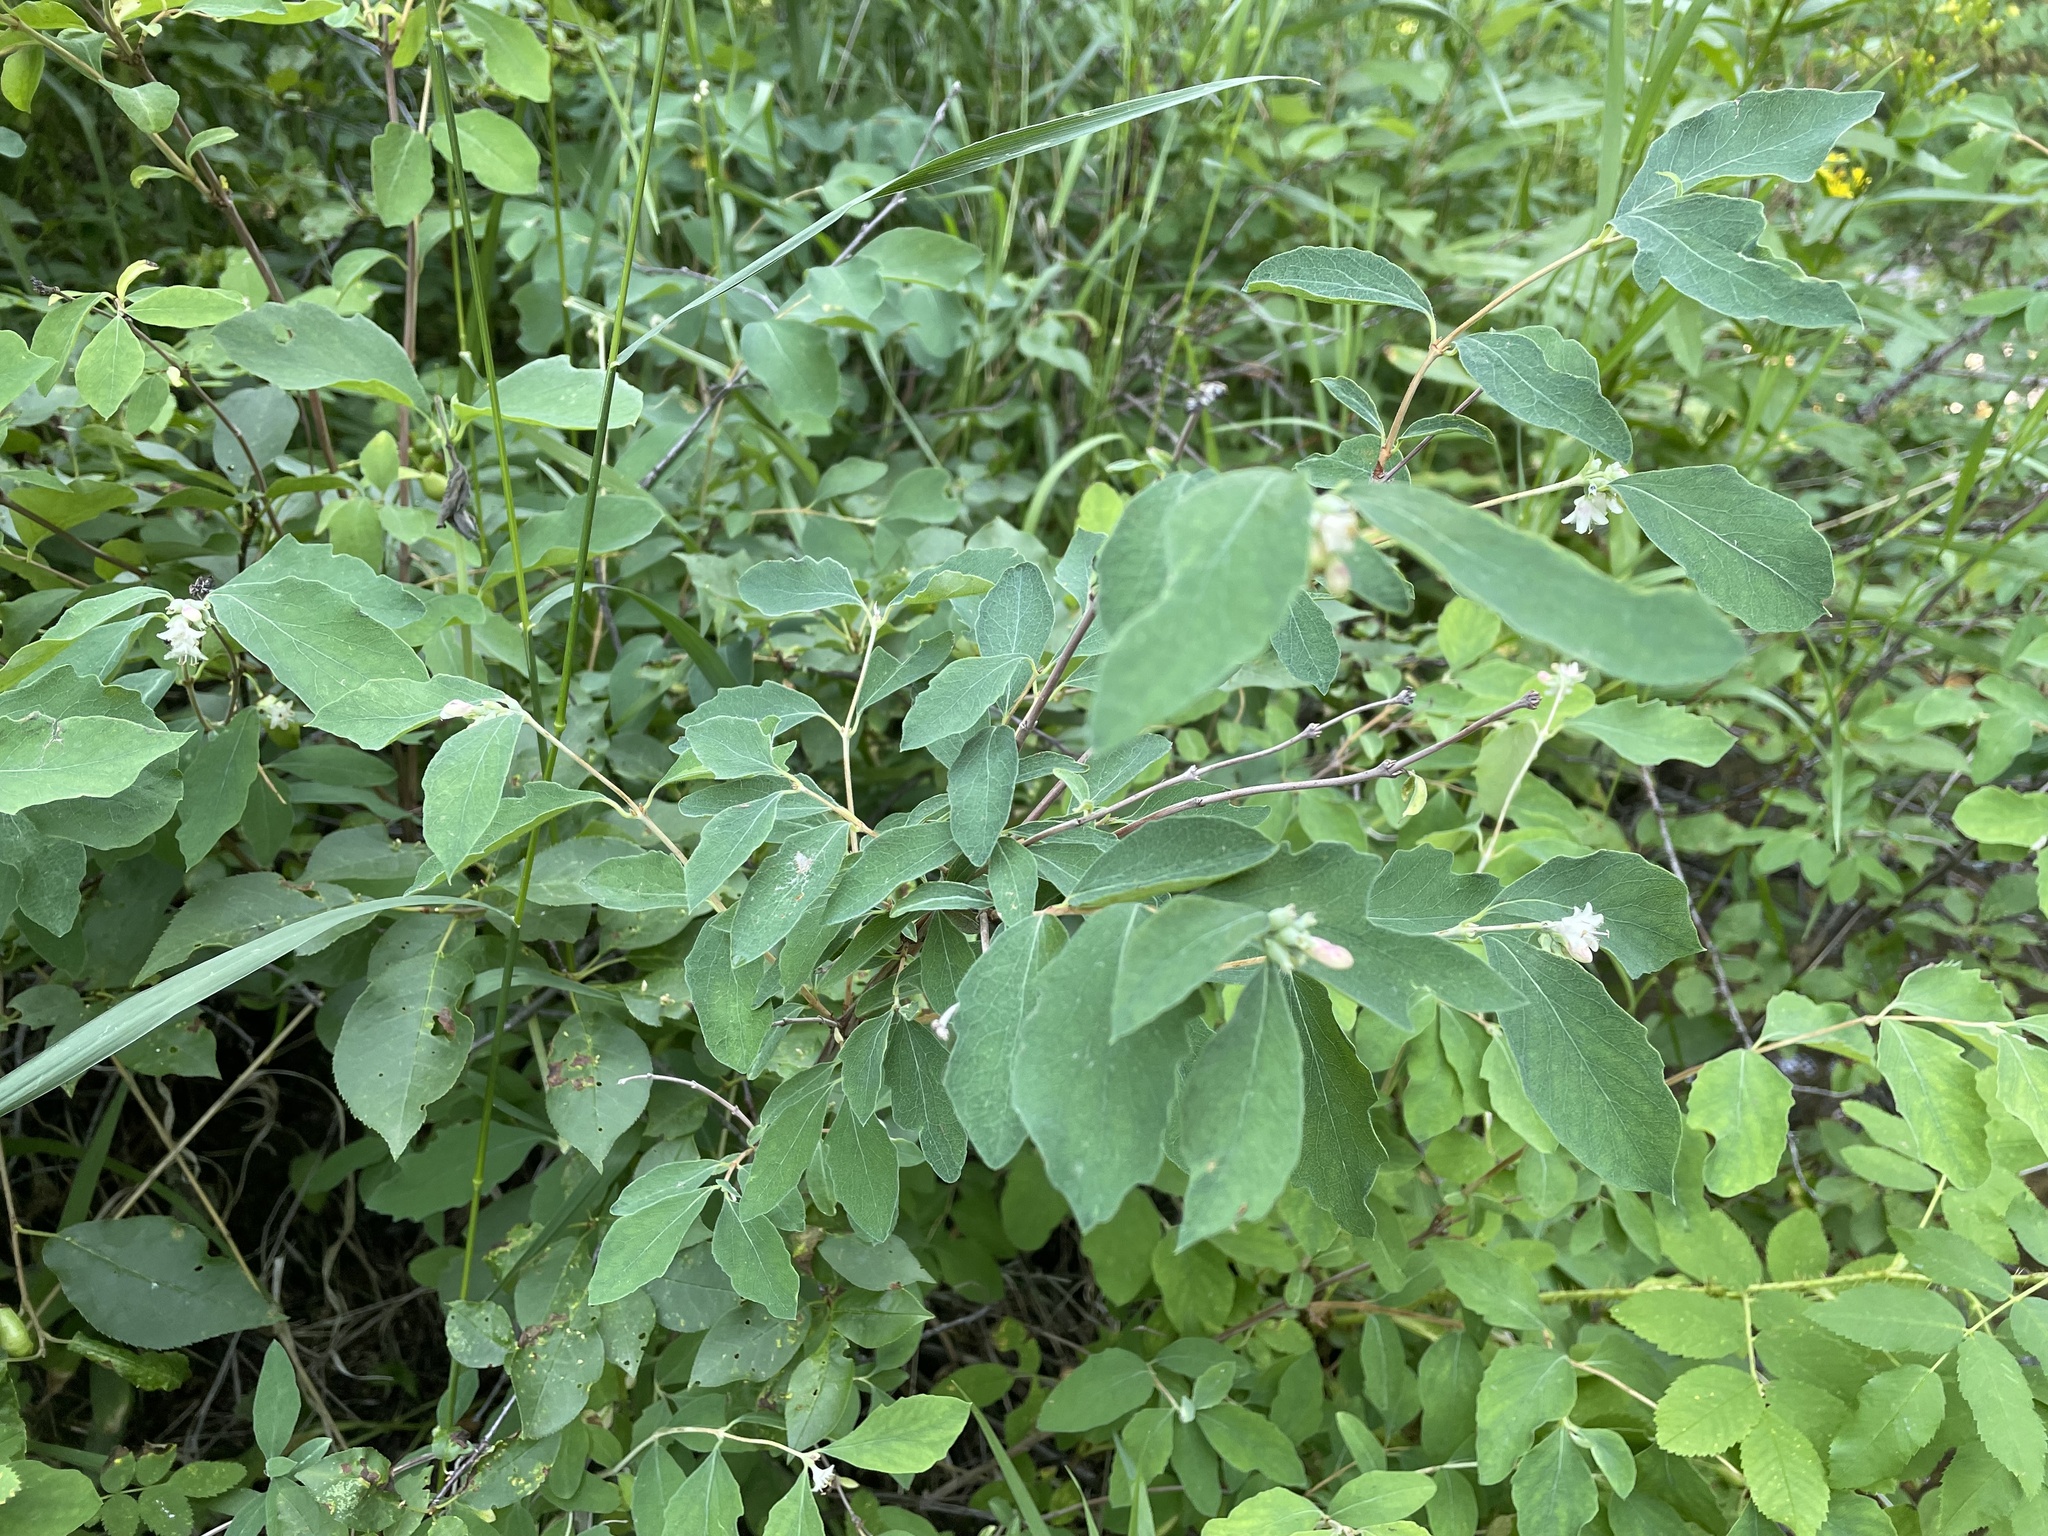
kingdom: Plantae
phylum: Tracheophyta
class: Magnoliopsida
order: Dipsacales
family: Caprifoliaceae
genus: Symphoricarpos
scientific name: Symphoricarpos occidentalis
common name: Wolfberry
